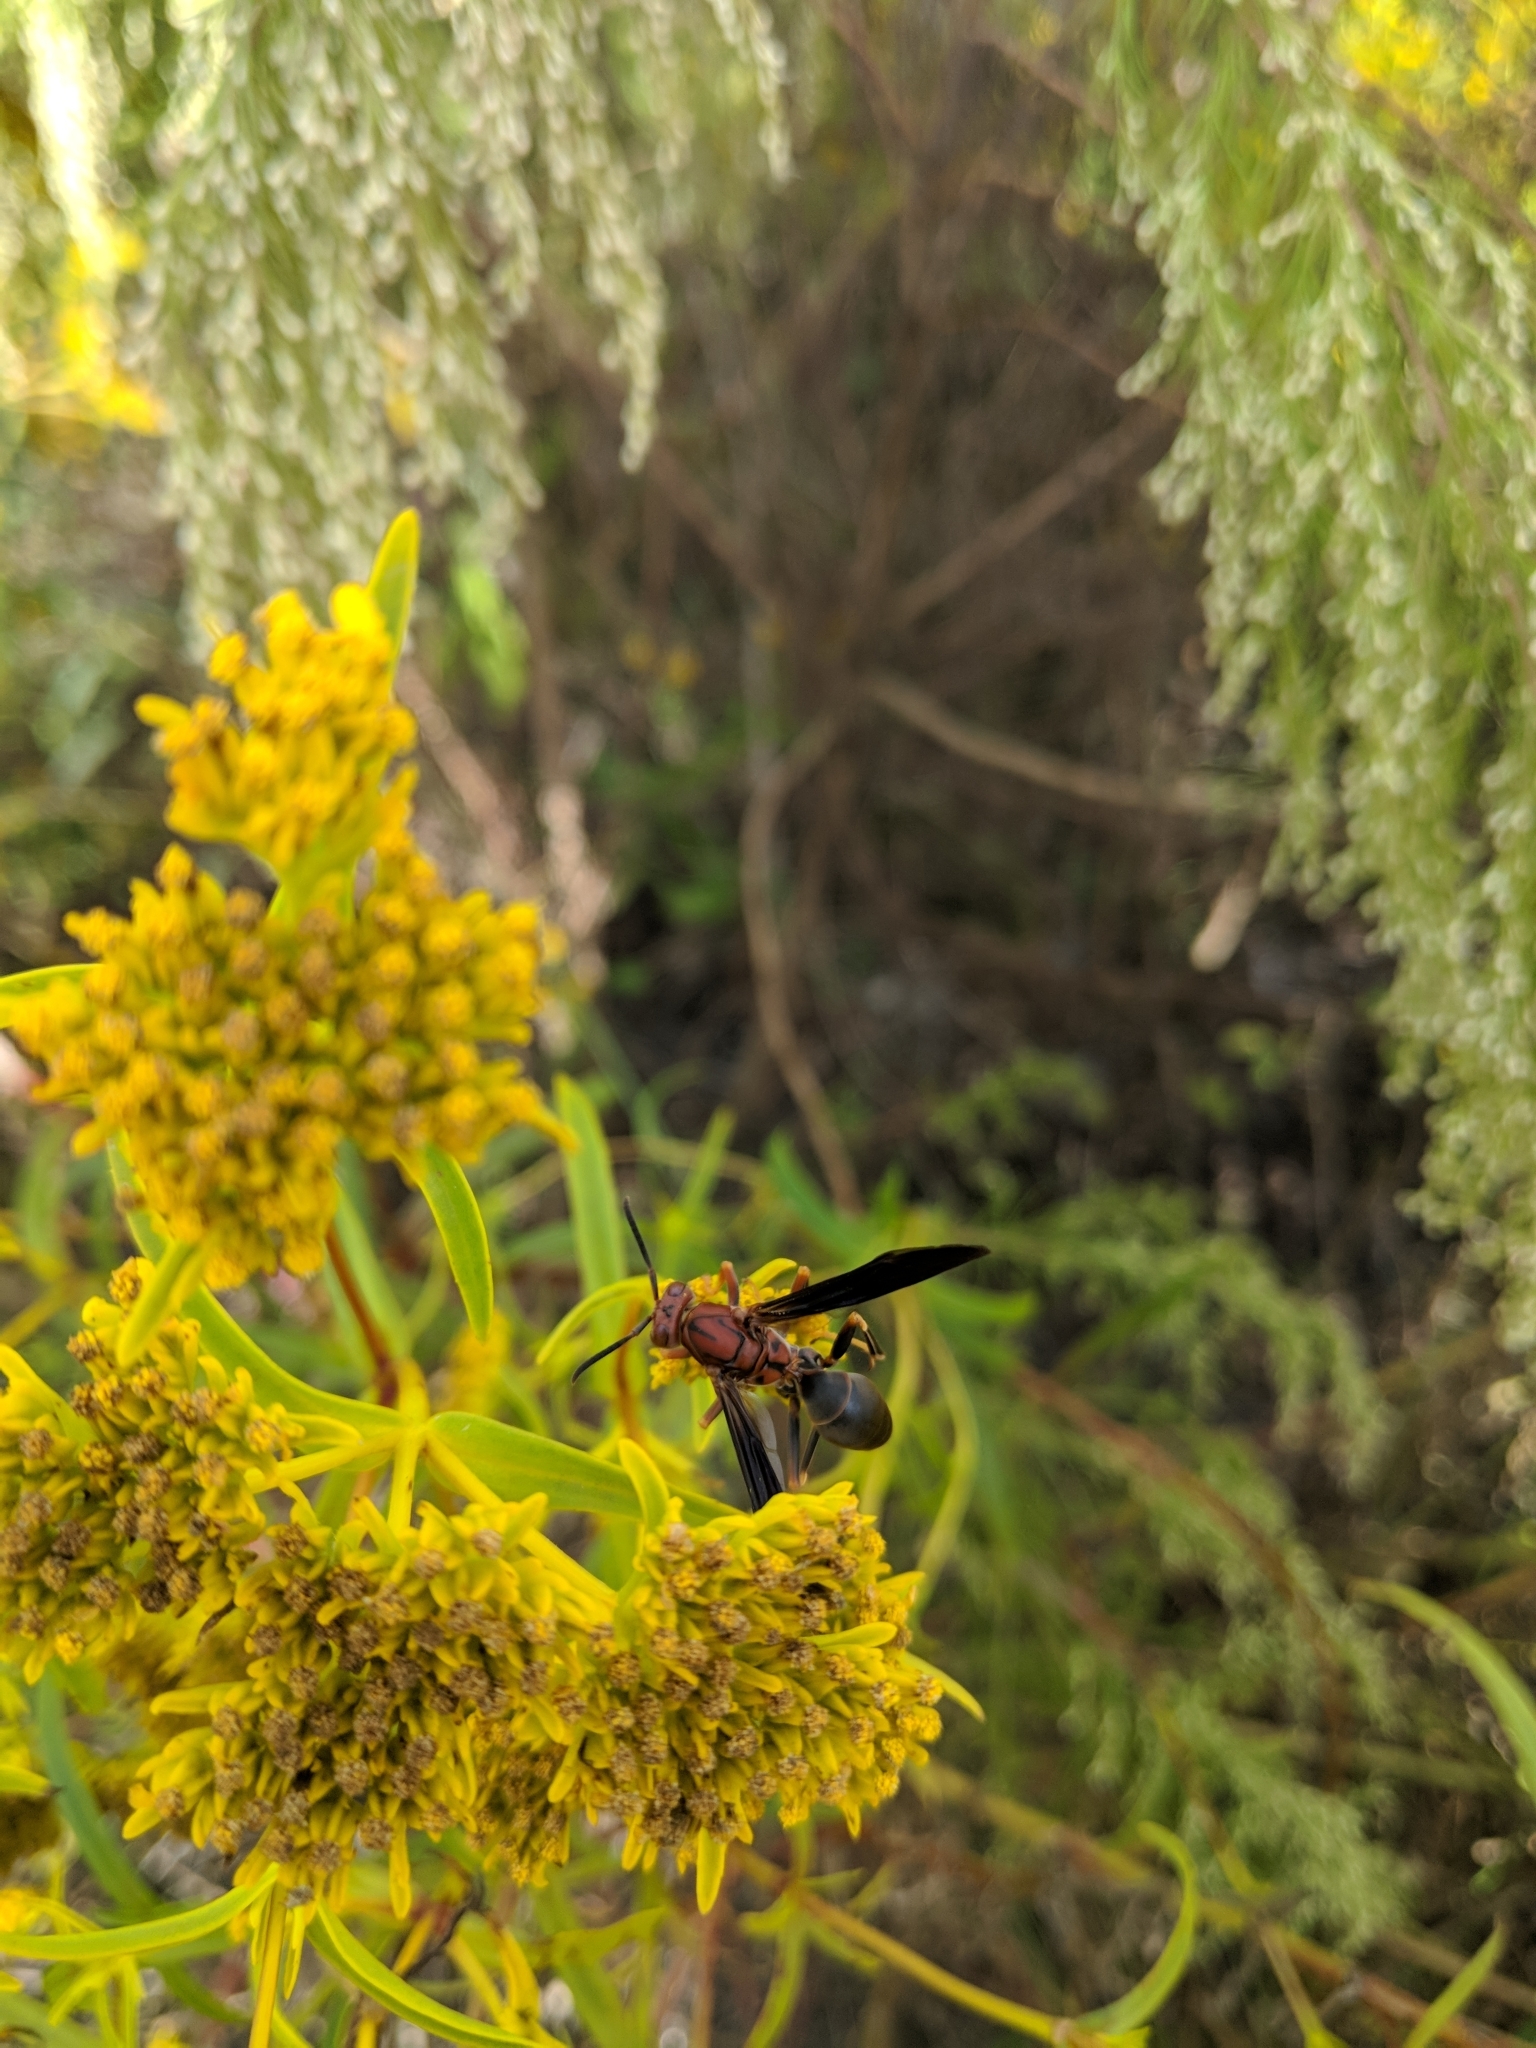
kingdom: Animalia
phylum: Arthropoda
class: Insecta
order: Hymenoptera
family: Eumenidae
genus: Polistes
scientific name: Polistes metricus
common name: Metric paper wasp
